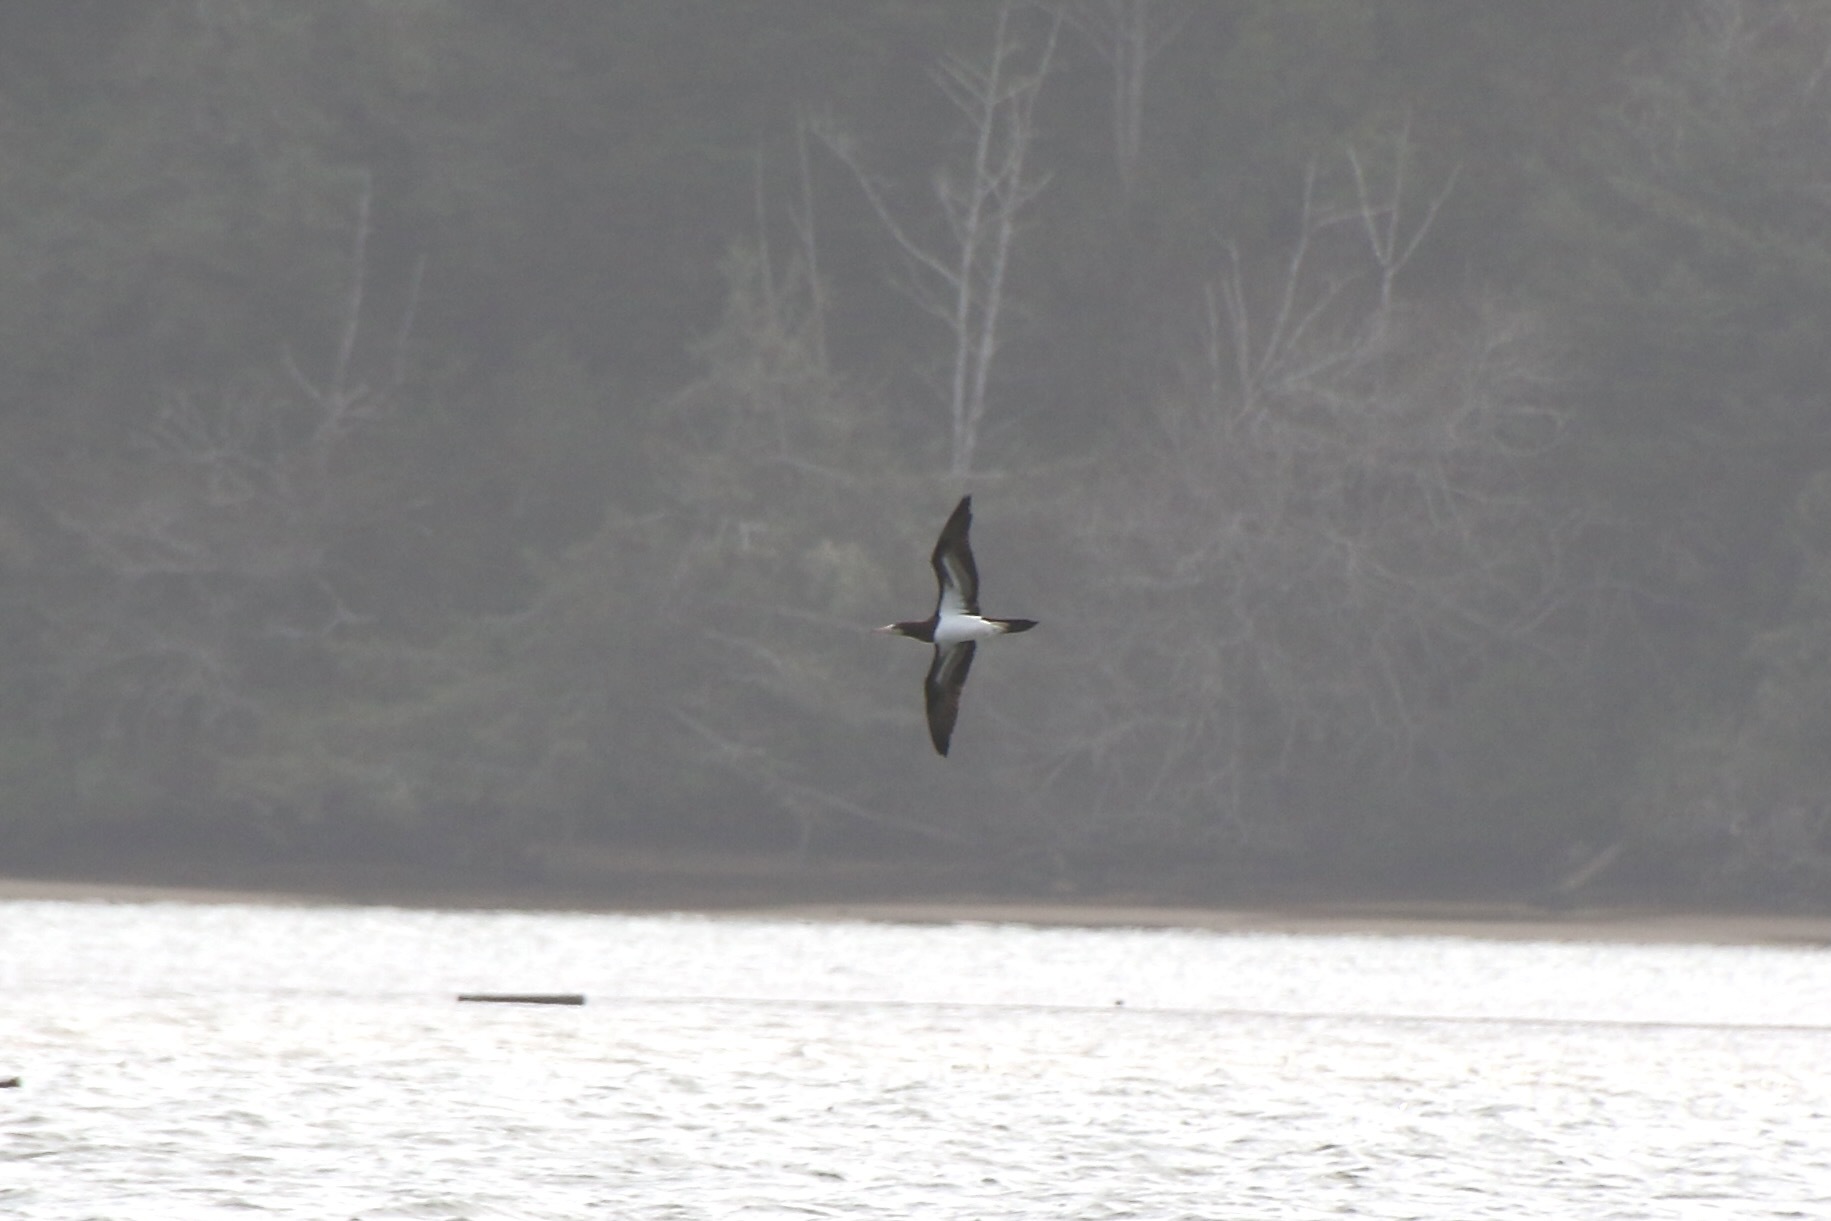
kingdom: Animalia
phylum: Chordata
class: Aves
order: Suliformes
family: Sulidae
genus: Sula
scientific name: Sula leucogaster
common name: Brown booby
